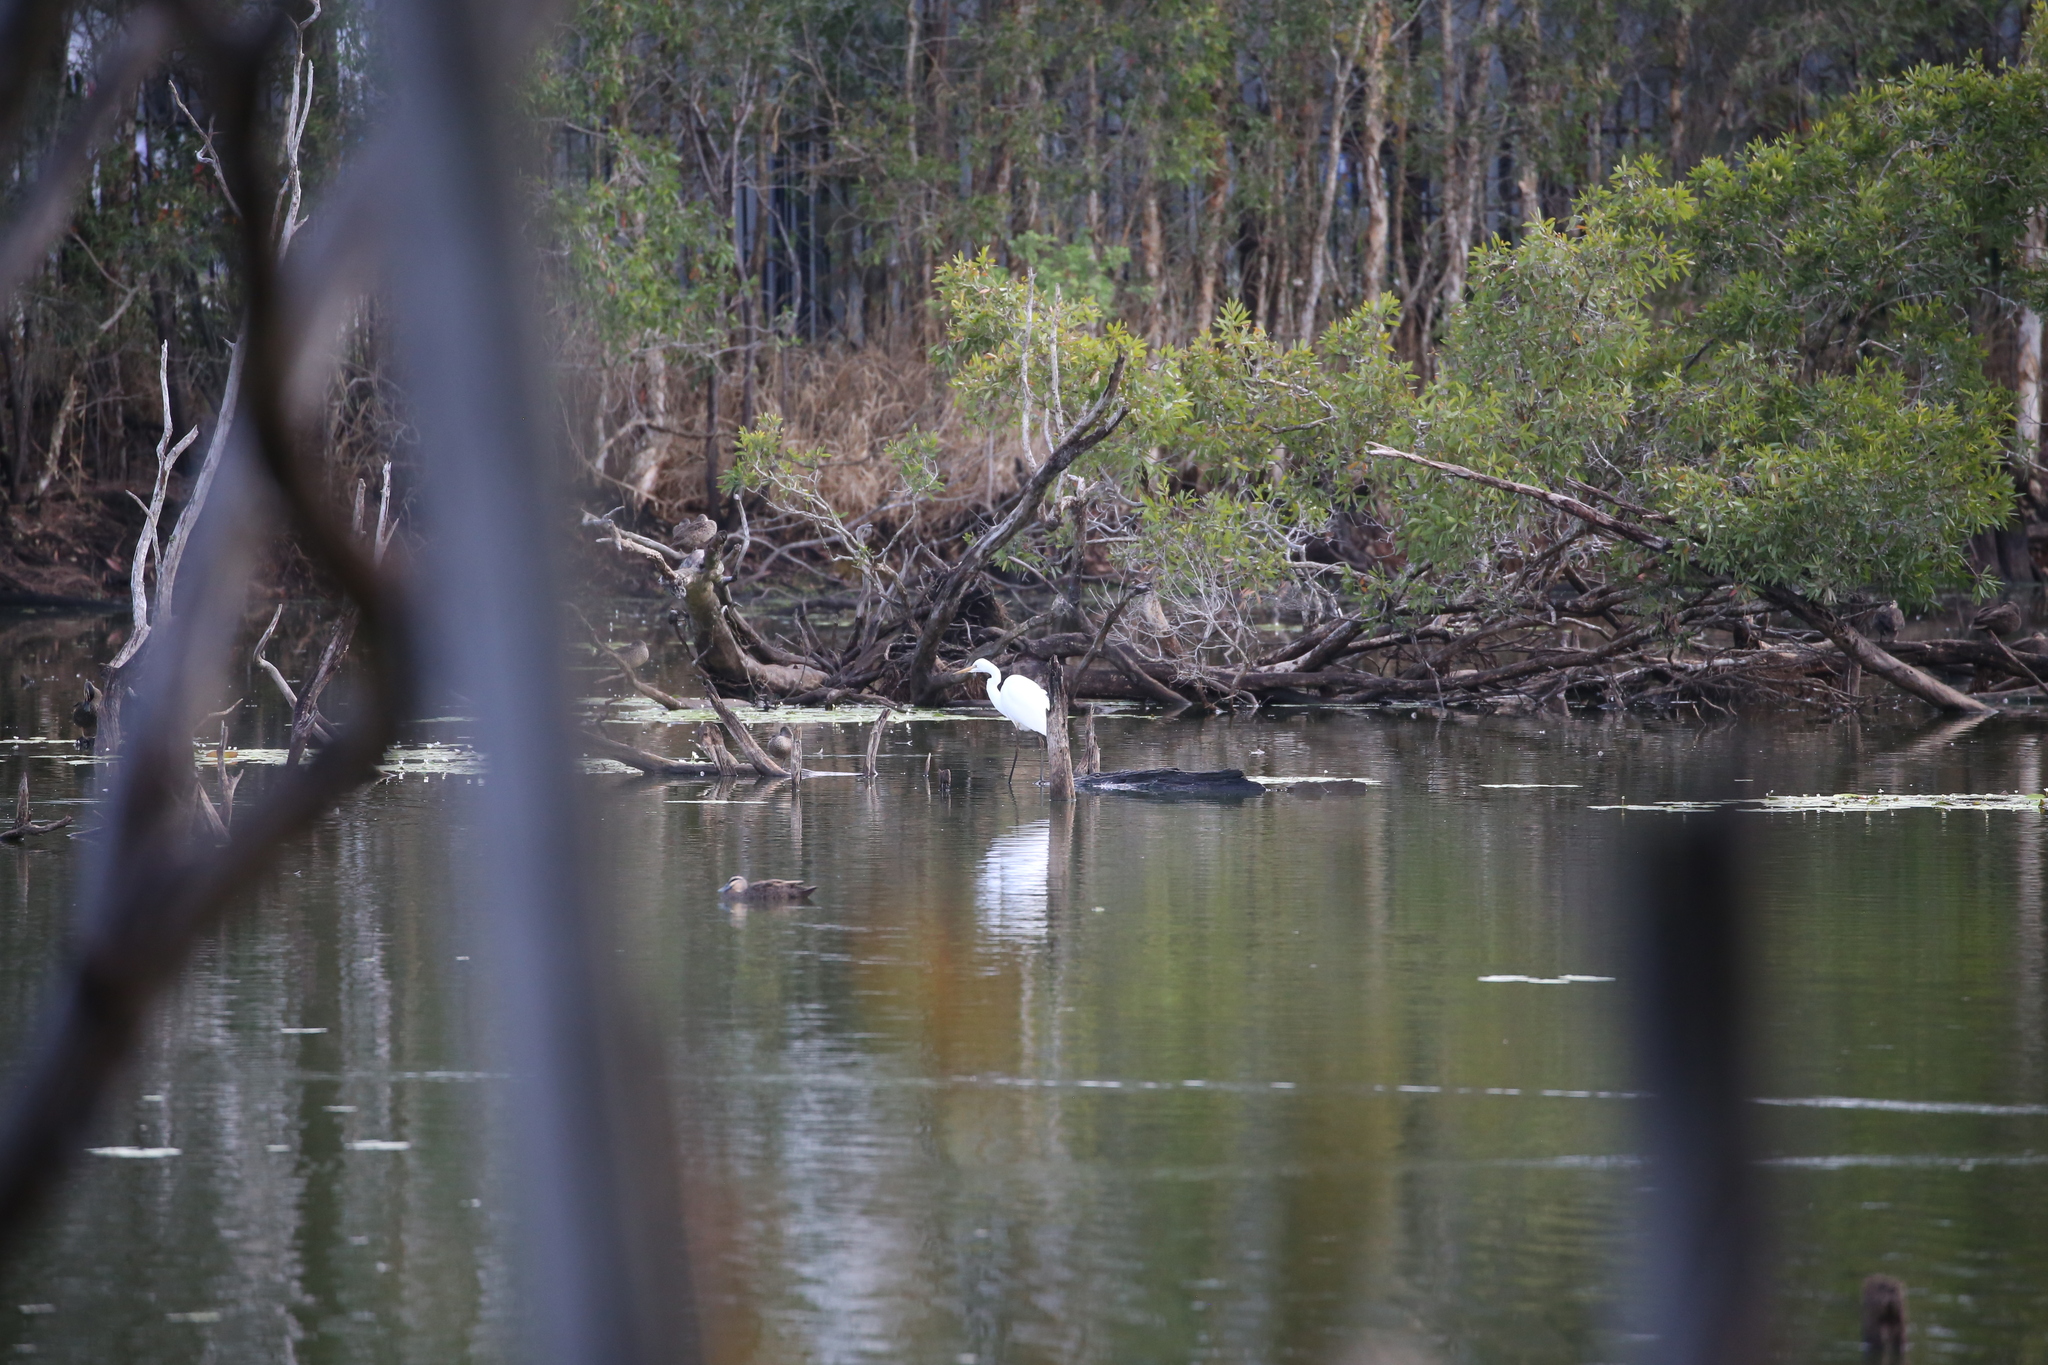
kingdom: Animalia
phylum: Chordata
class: Aves
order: Pelecaniformes
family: Ardeidae
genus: Ardea
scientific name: Ardea alba
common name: Great egret
